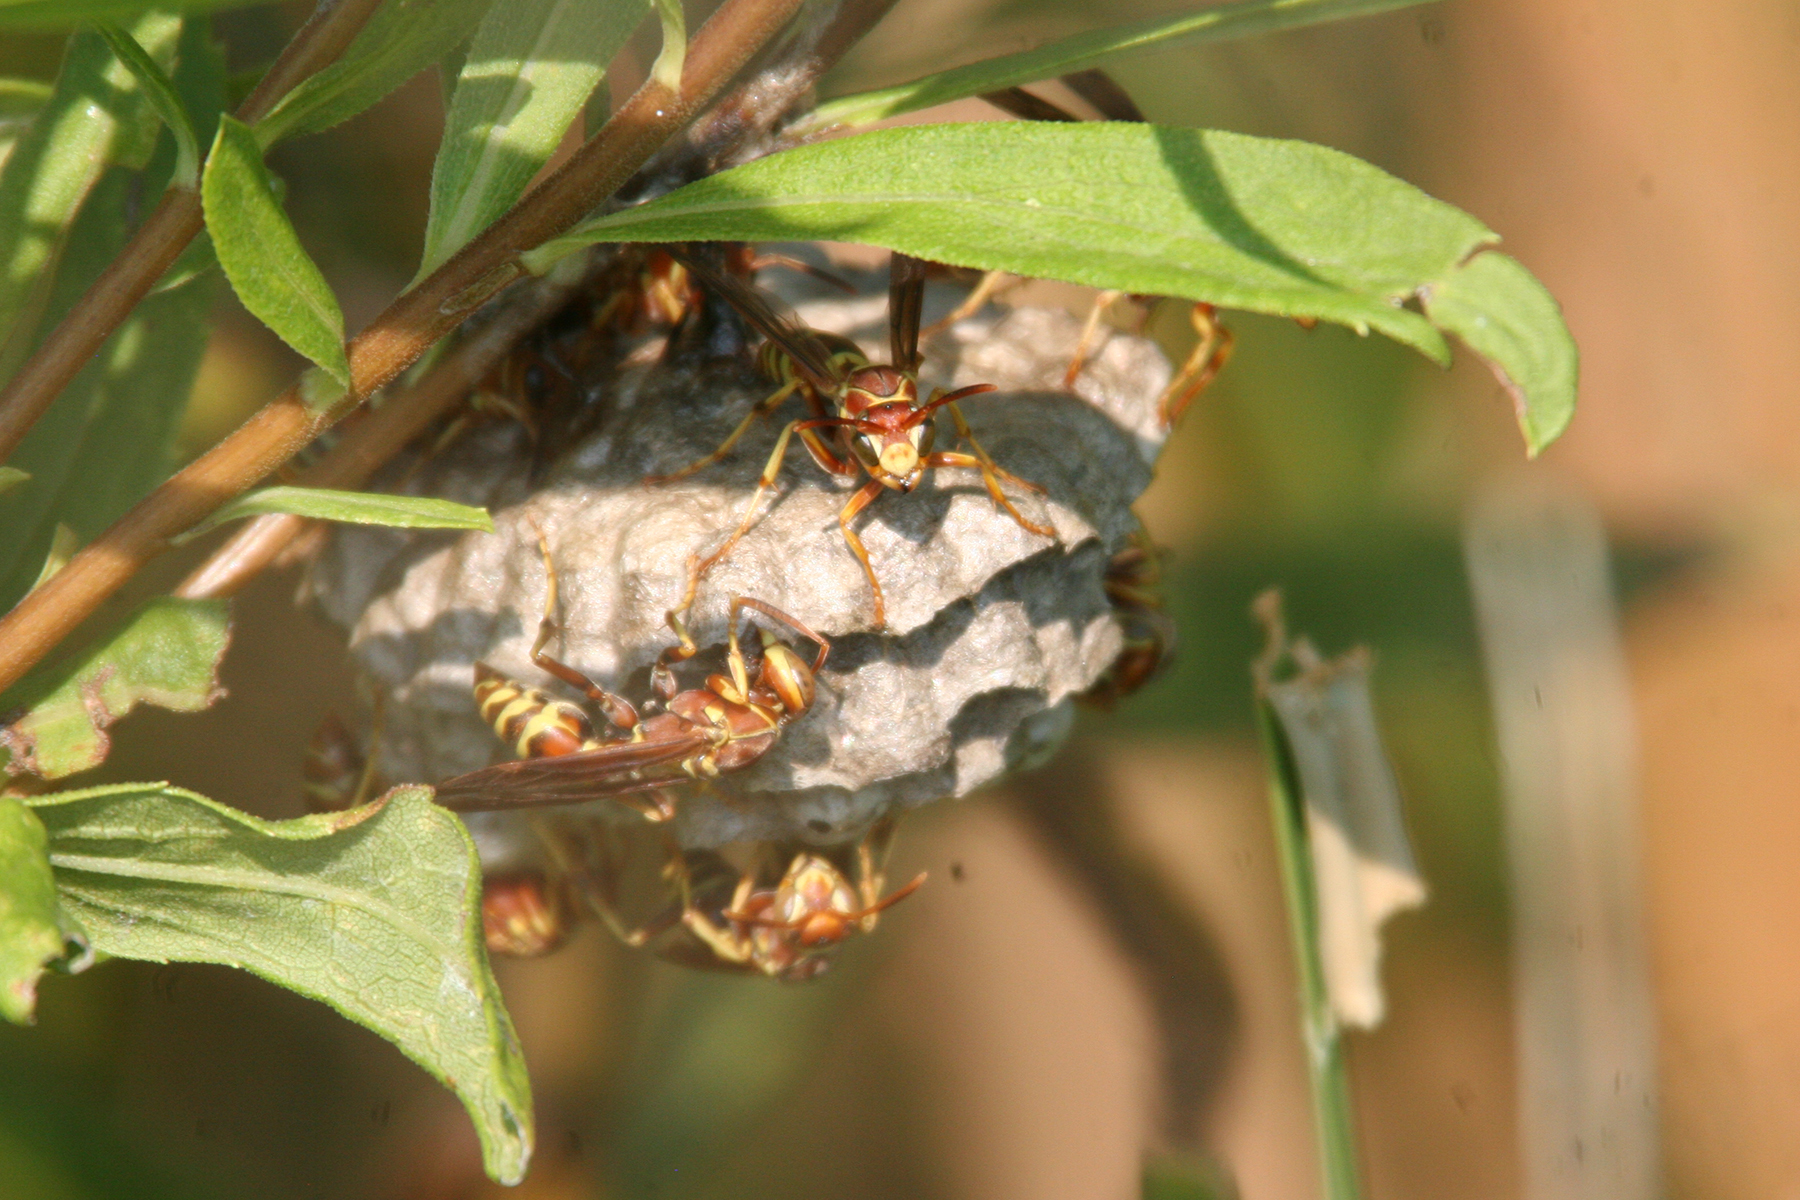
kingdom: Animalia
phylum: Arthropoda
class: Insecta
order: Hymenoptera
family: Eumenidae
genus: Polistes
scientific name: Polistes dorsalis
